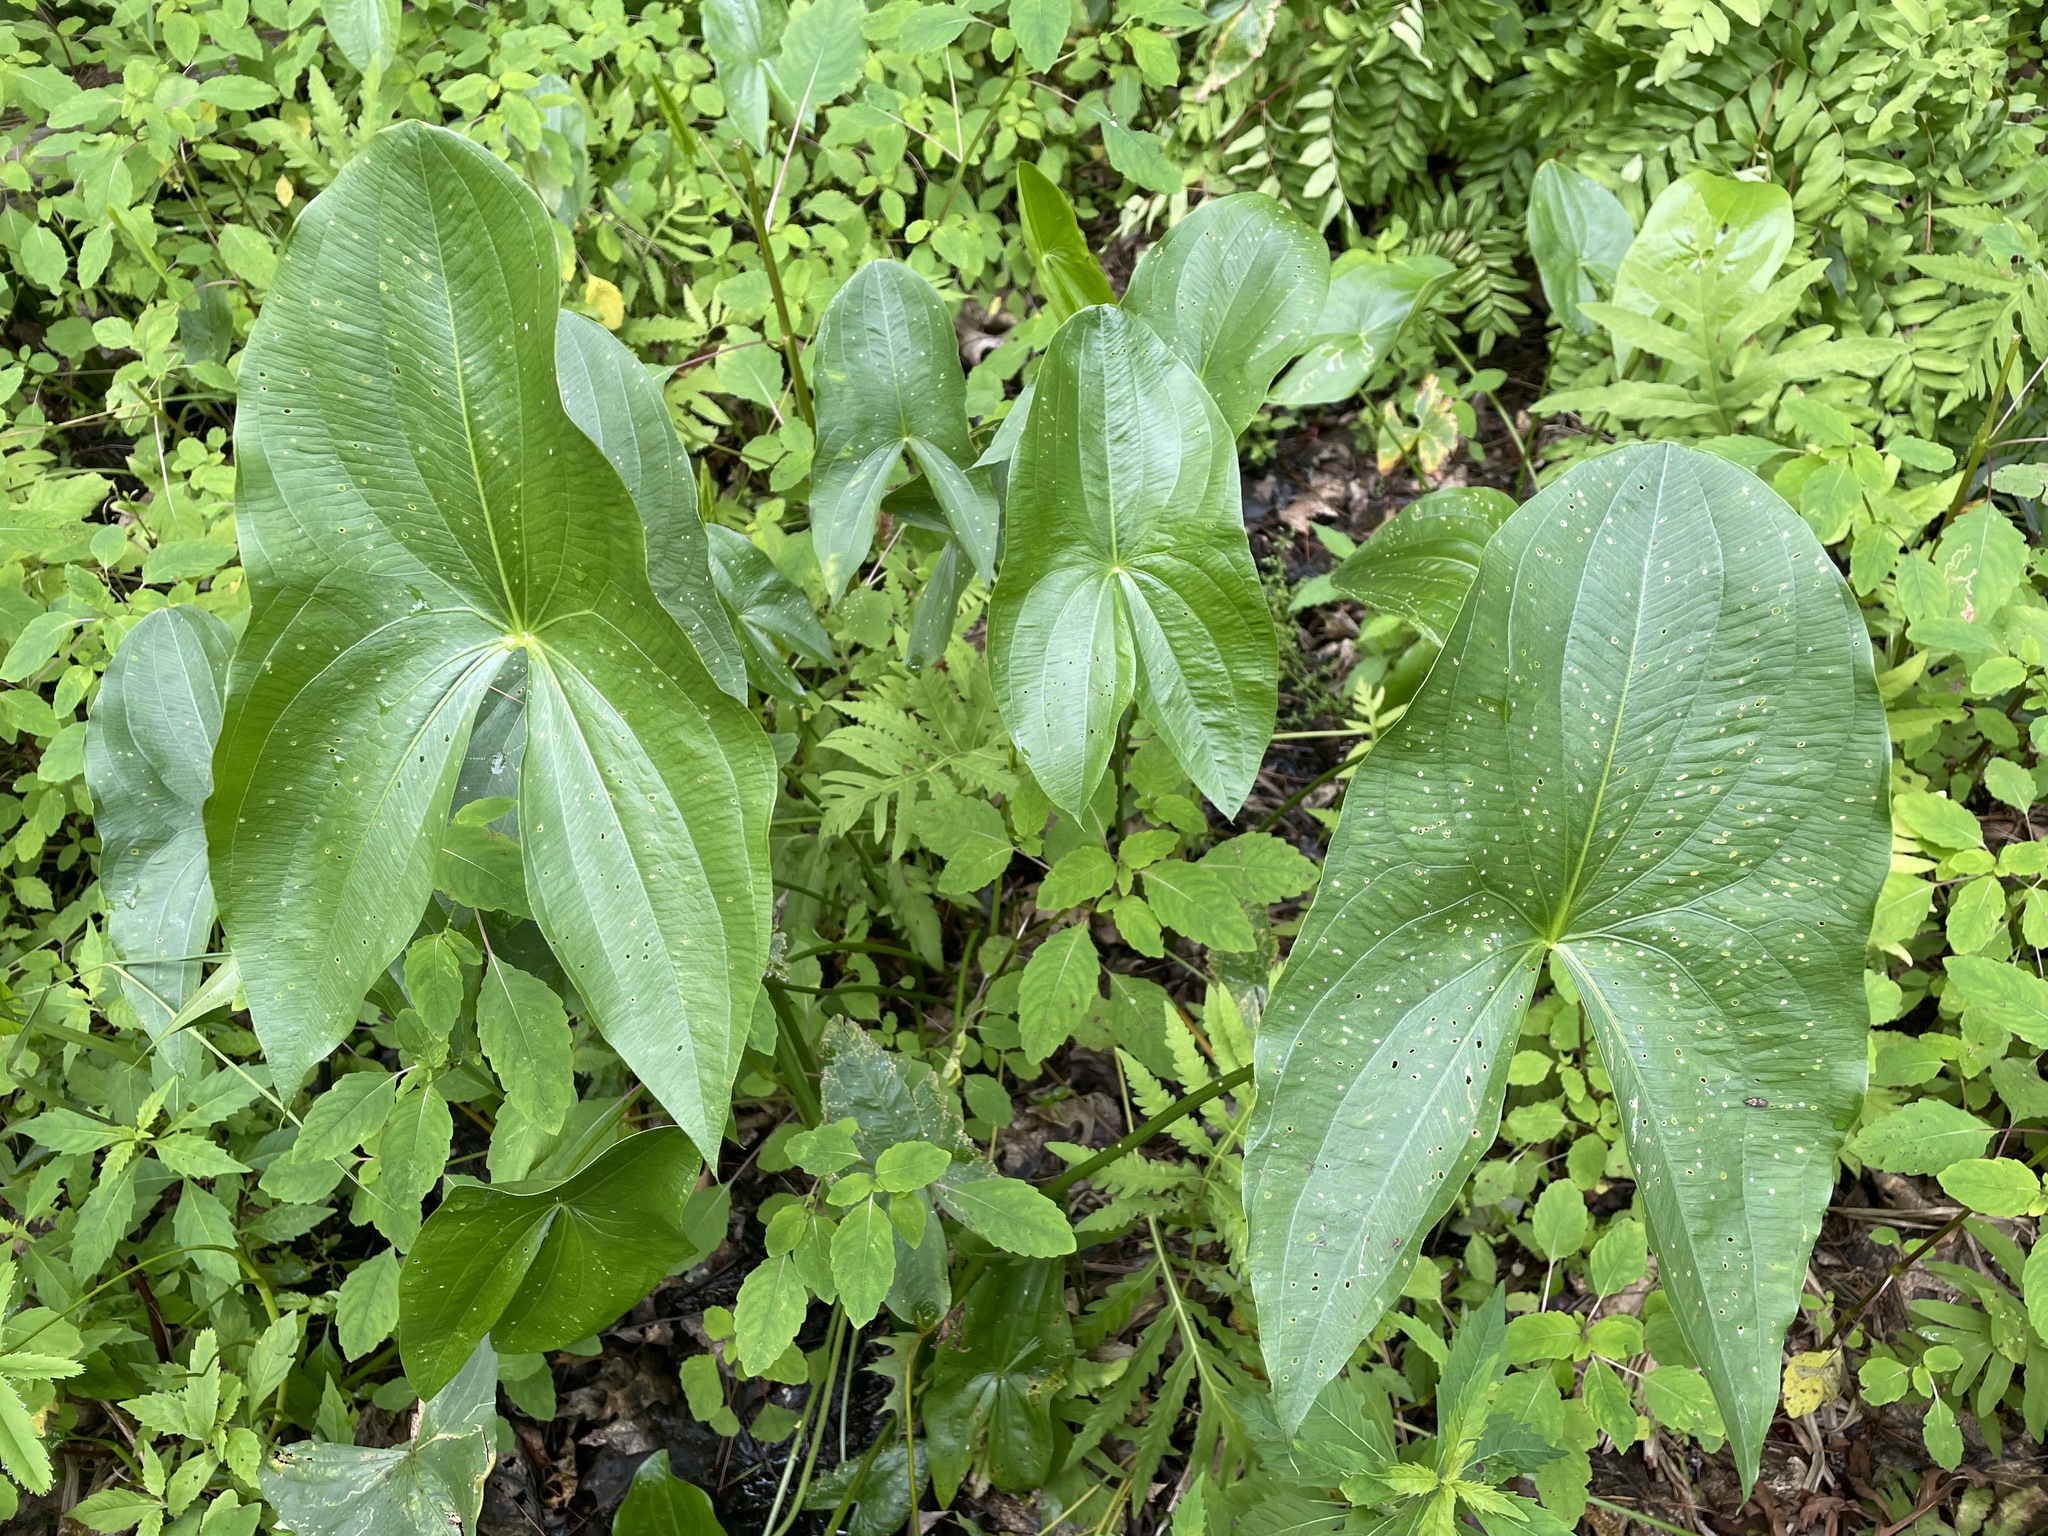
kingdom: Plantae
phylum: Tracheophyta
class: Liliopsida
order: Alismatales
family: Alismataceae
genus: Sagittaria
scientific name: Sagittaria latifolia
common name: Duck-potato
